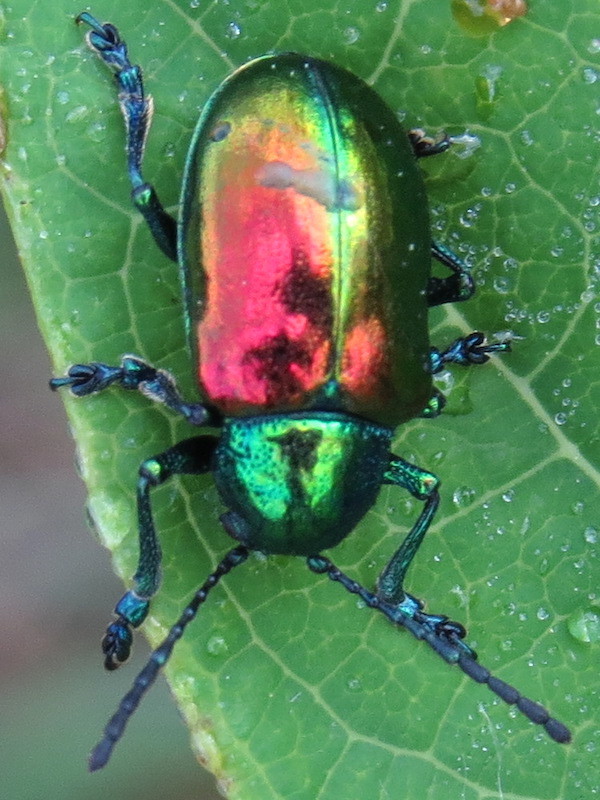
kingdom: Animalia
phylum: Arthropoda
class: Insecta
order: Coleoptera
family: Chrysomelidae
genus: Chrysochus
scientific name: Chrysochus auratus
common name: Dogbane leaf beetle
